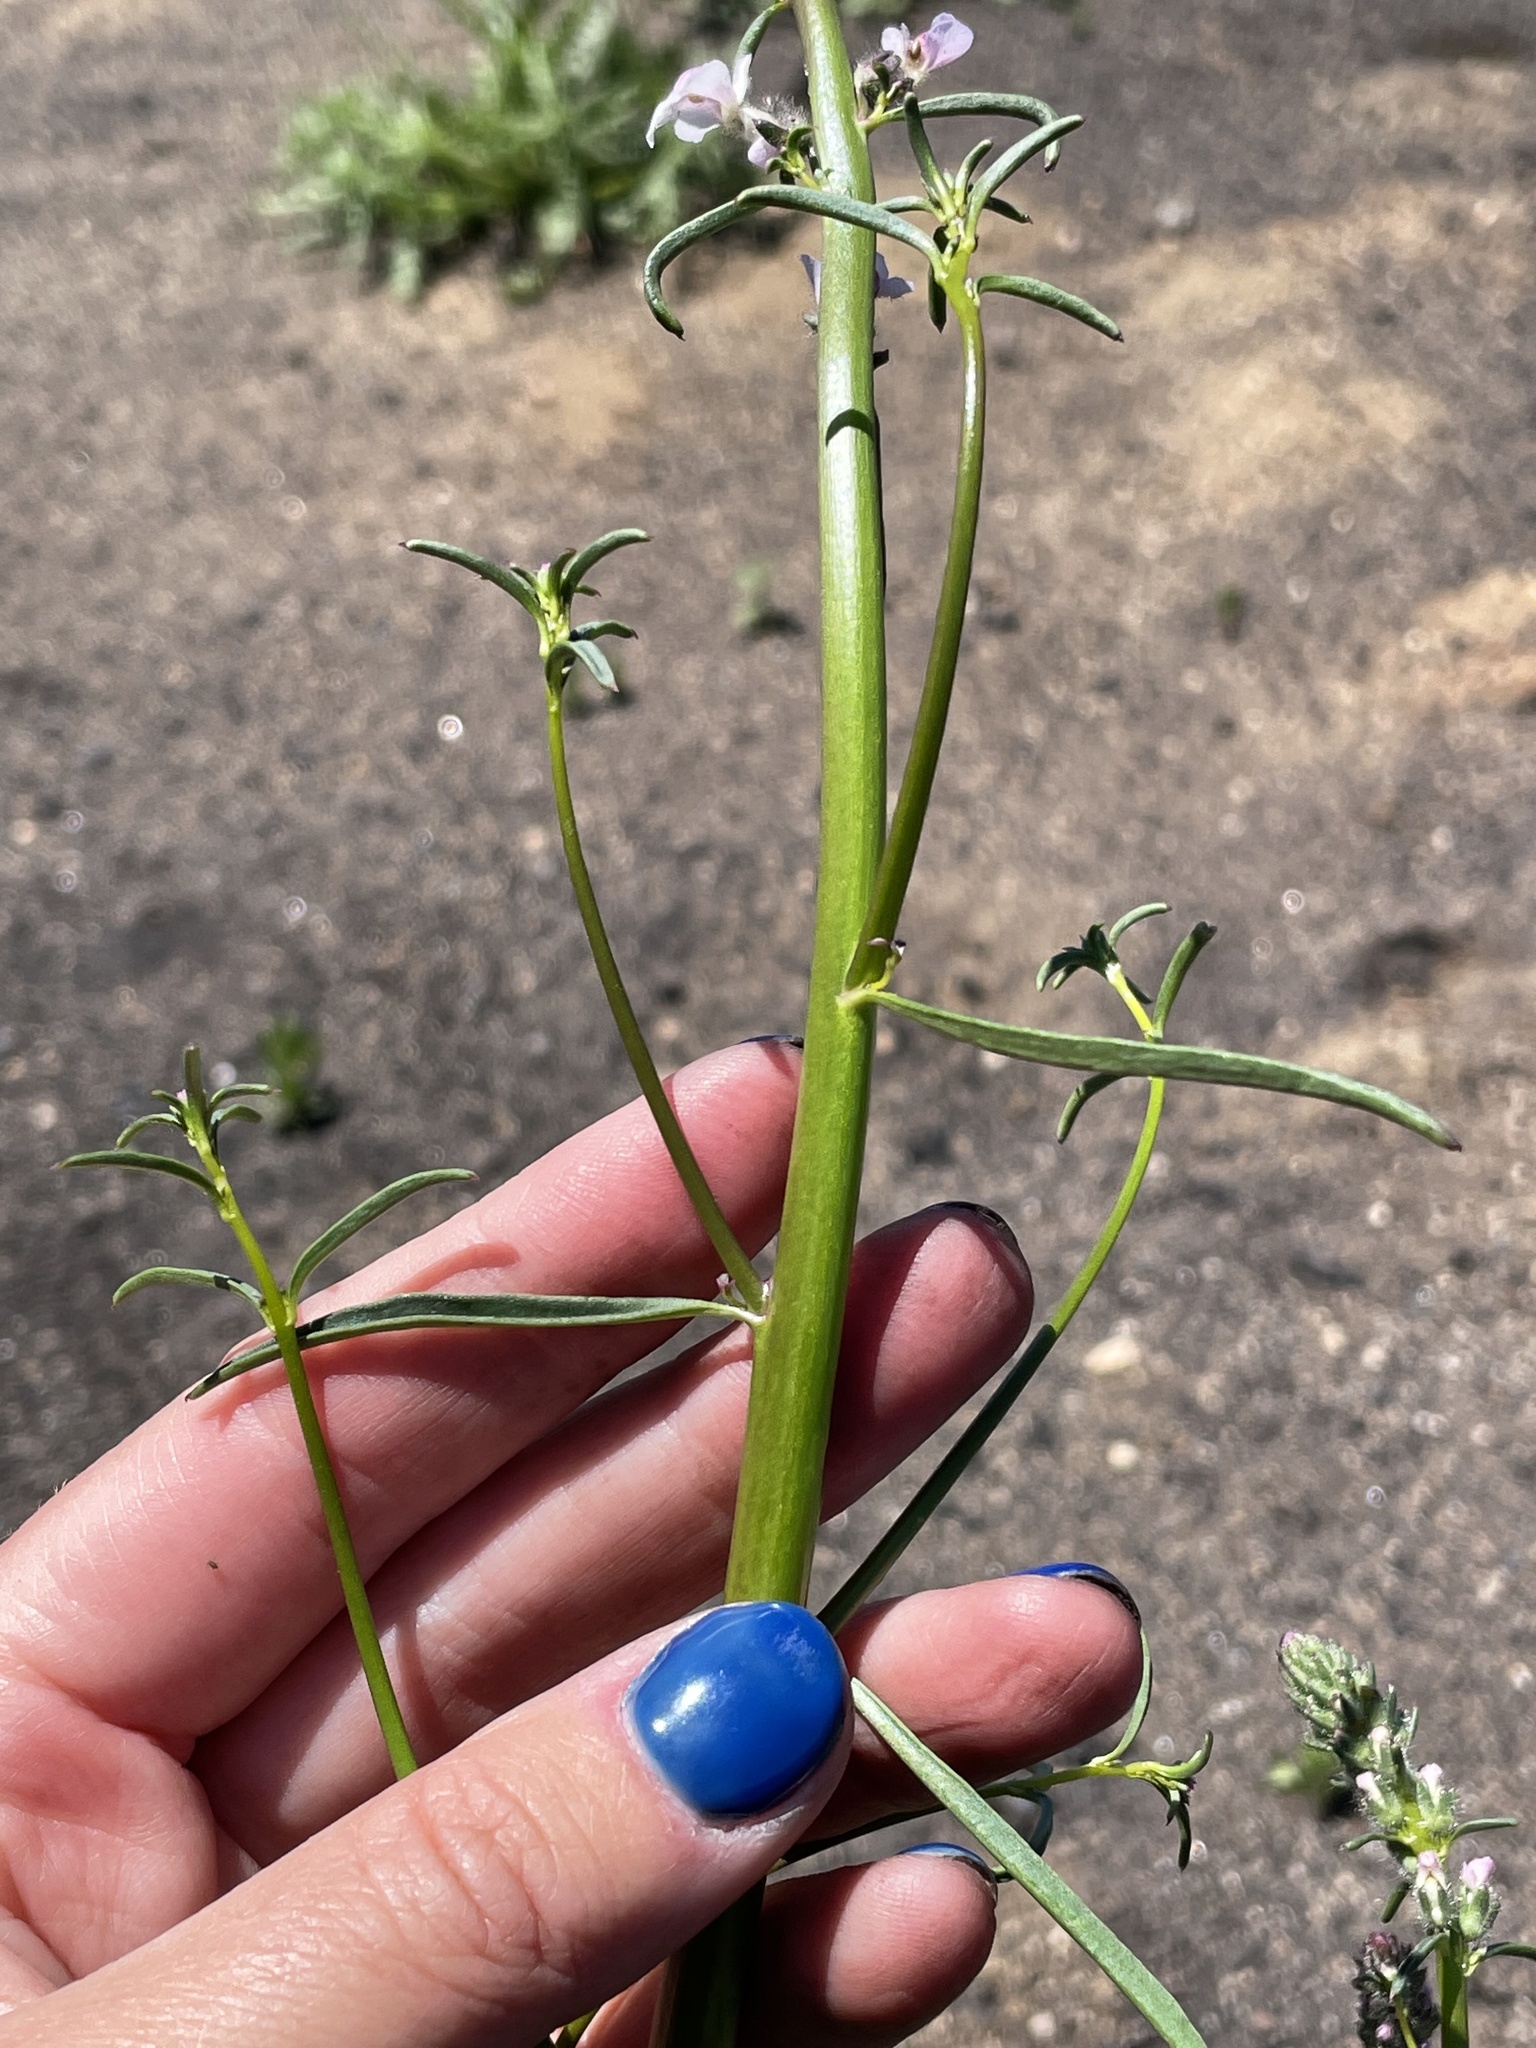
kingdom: Plantae
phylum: Tracheophyta
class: Magnoliopsida
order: Lamiales
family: Plantaginaceae
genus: Sairocarpus
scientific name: Sairocarpus coulterianus
